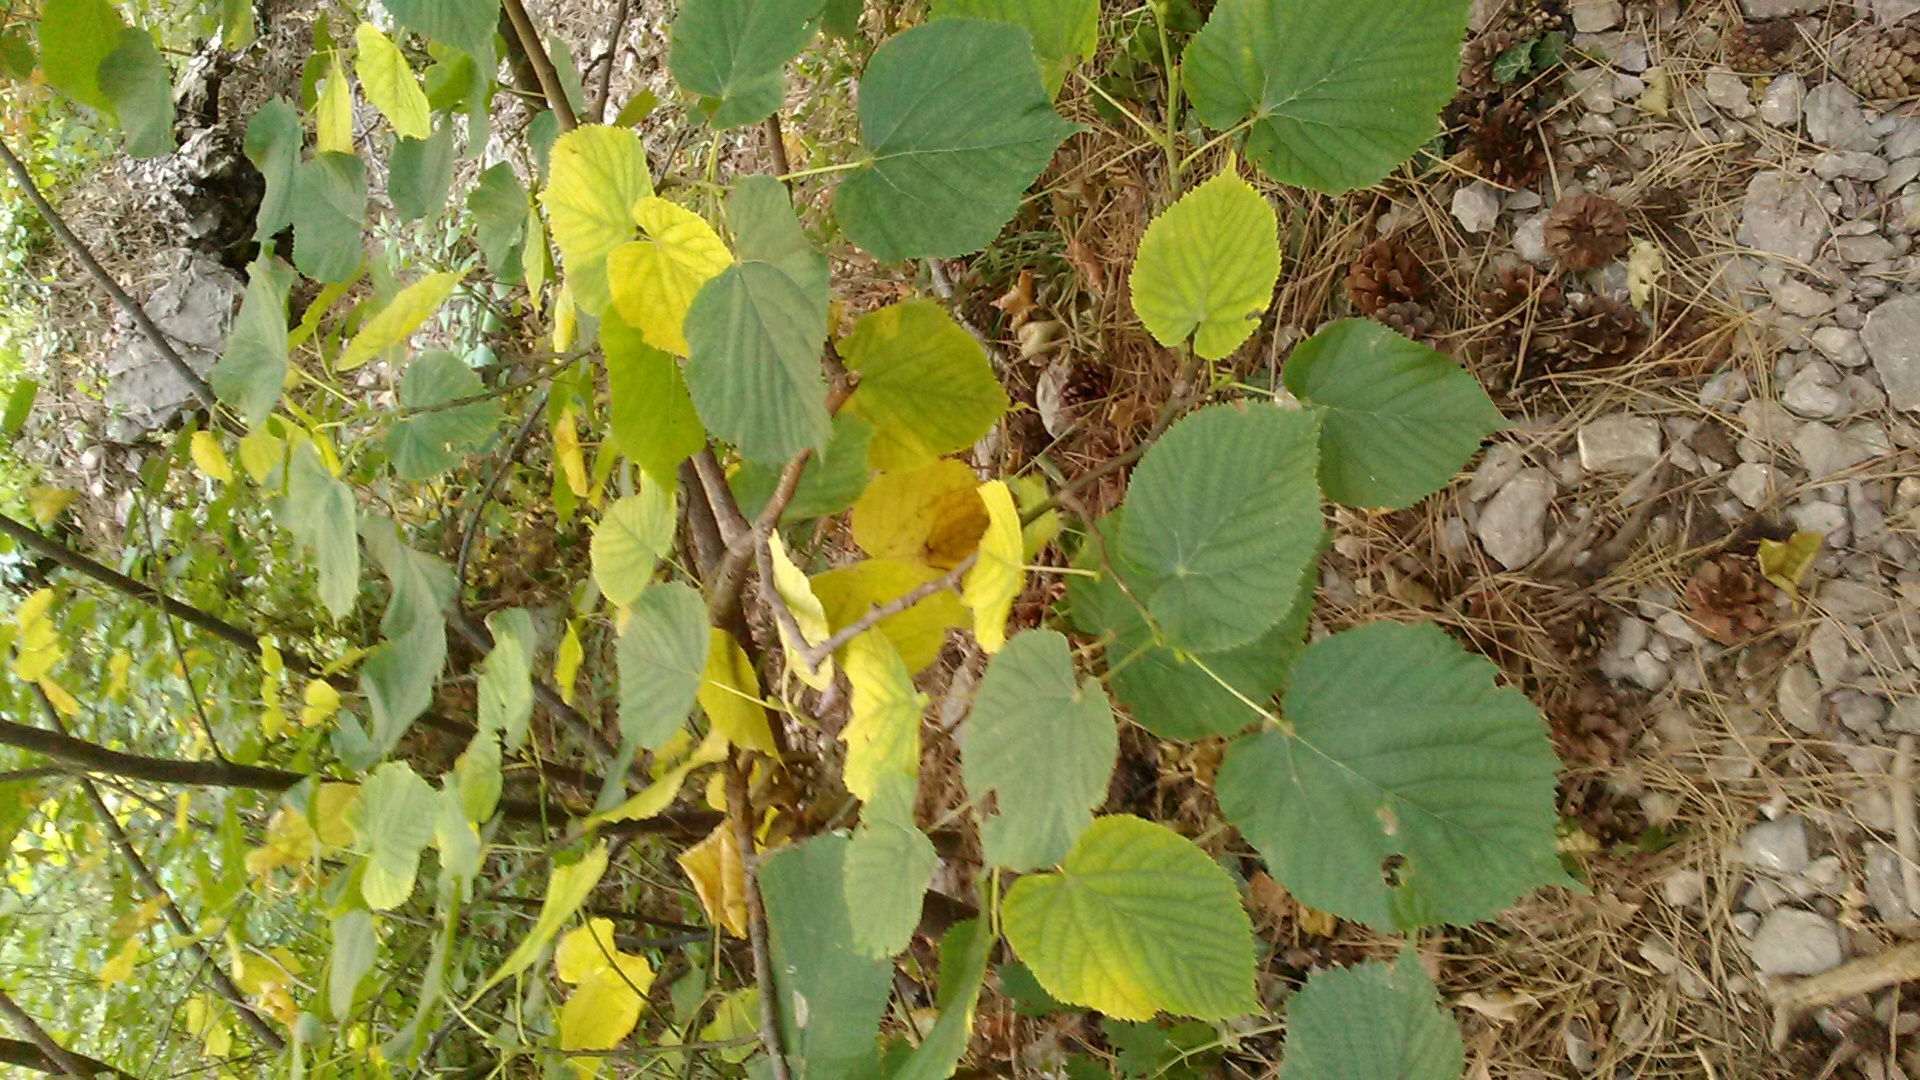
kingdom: Plantae
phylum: Tracheophyta
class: Magnoliopsida
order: Malvales
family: Malvaceae
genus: Tilia
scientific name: Tilia
